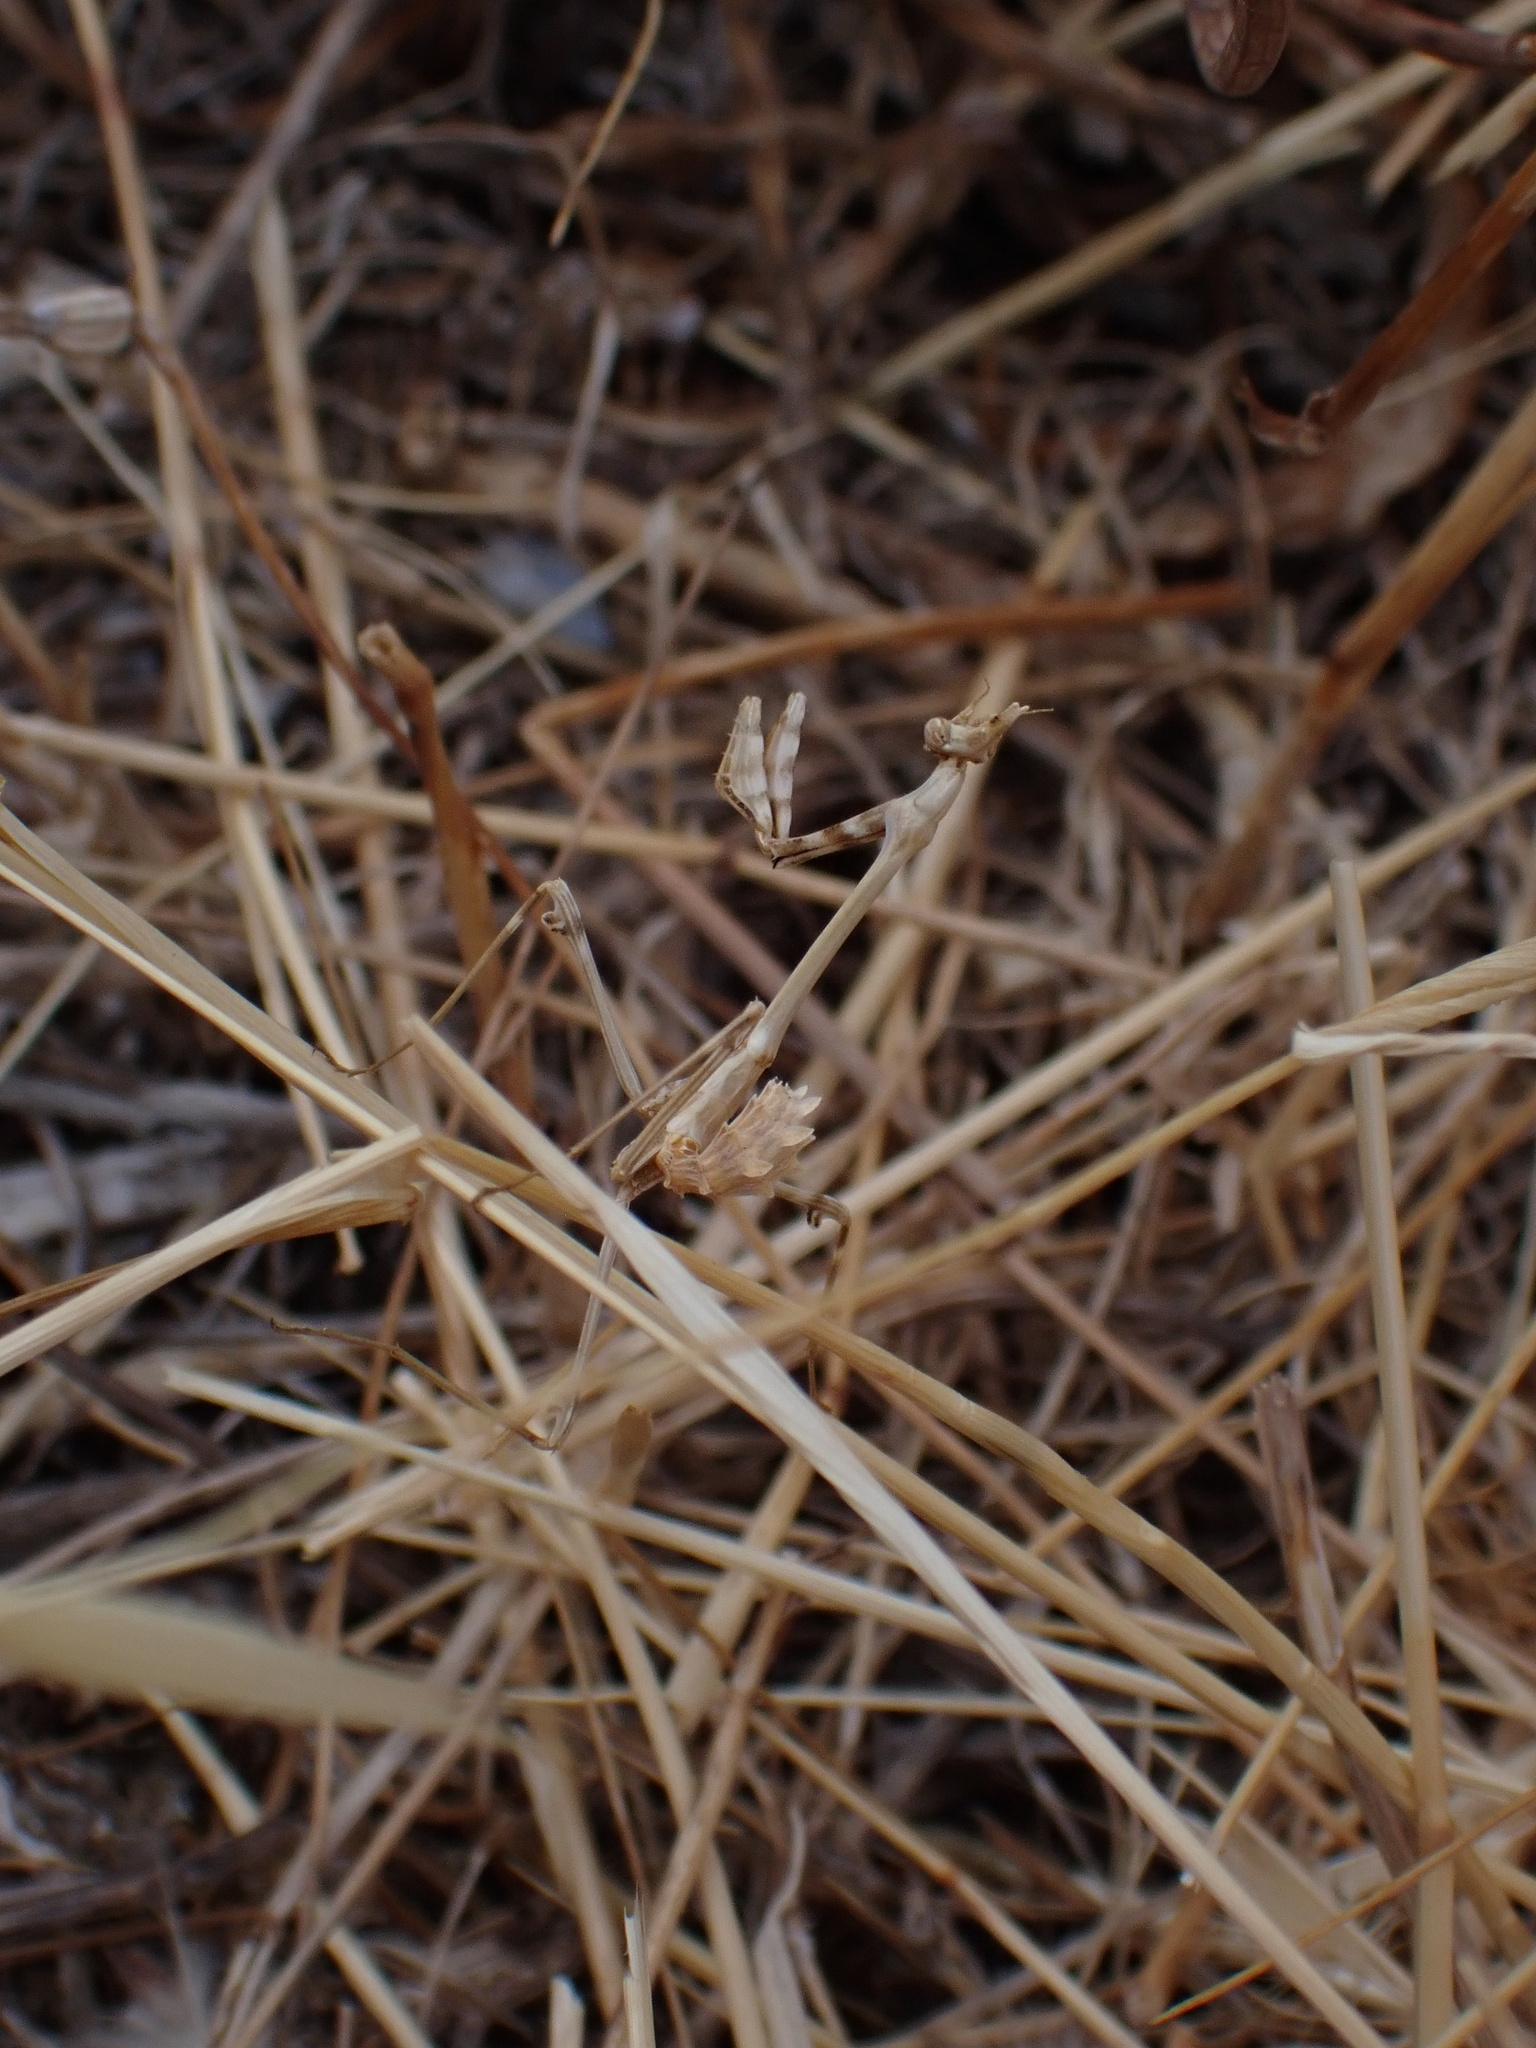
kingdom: Animalia
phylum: Arthropoda
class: Insecta
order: Mantodea
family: Empusidae
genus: Empusa
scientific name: Empusa fasciata
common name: Devil's mare
